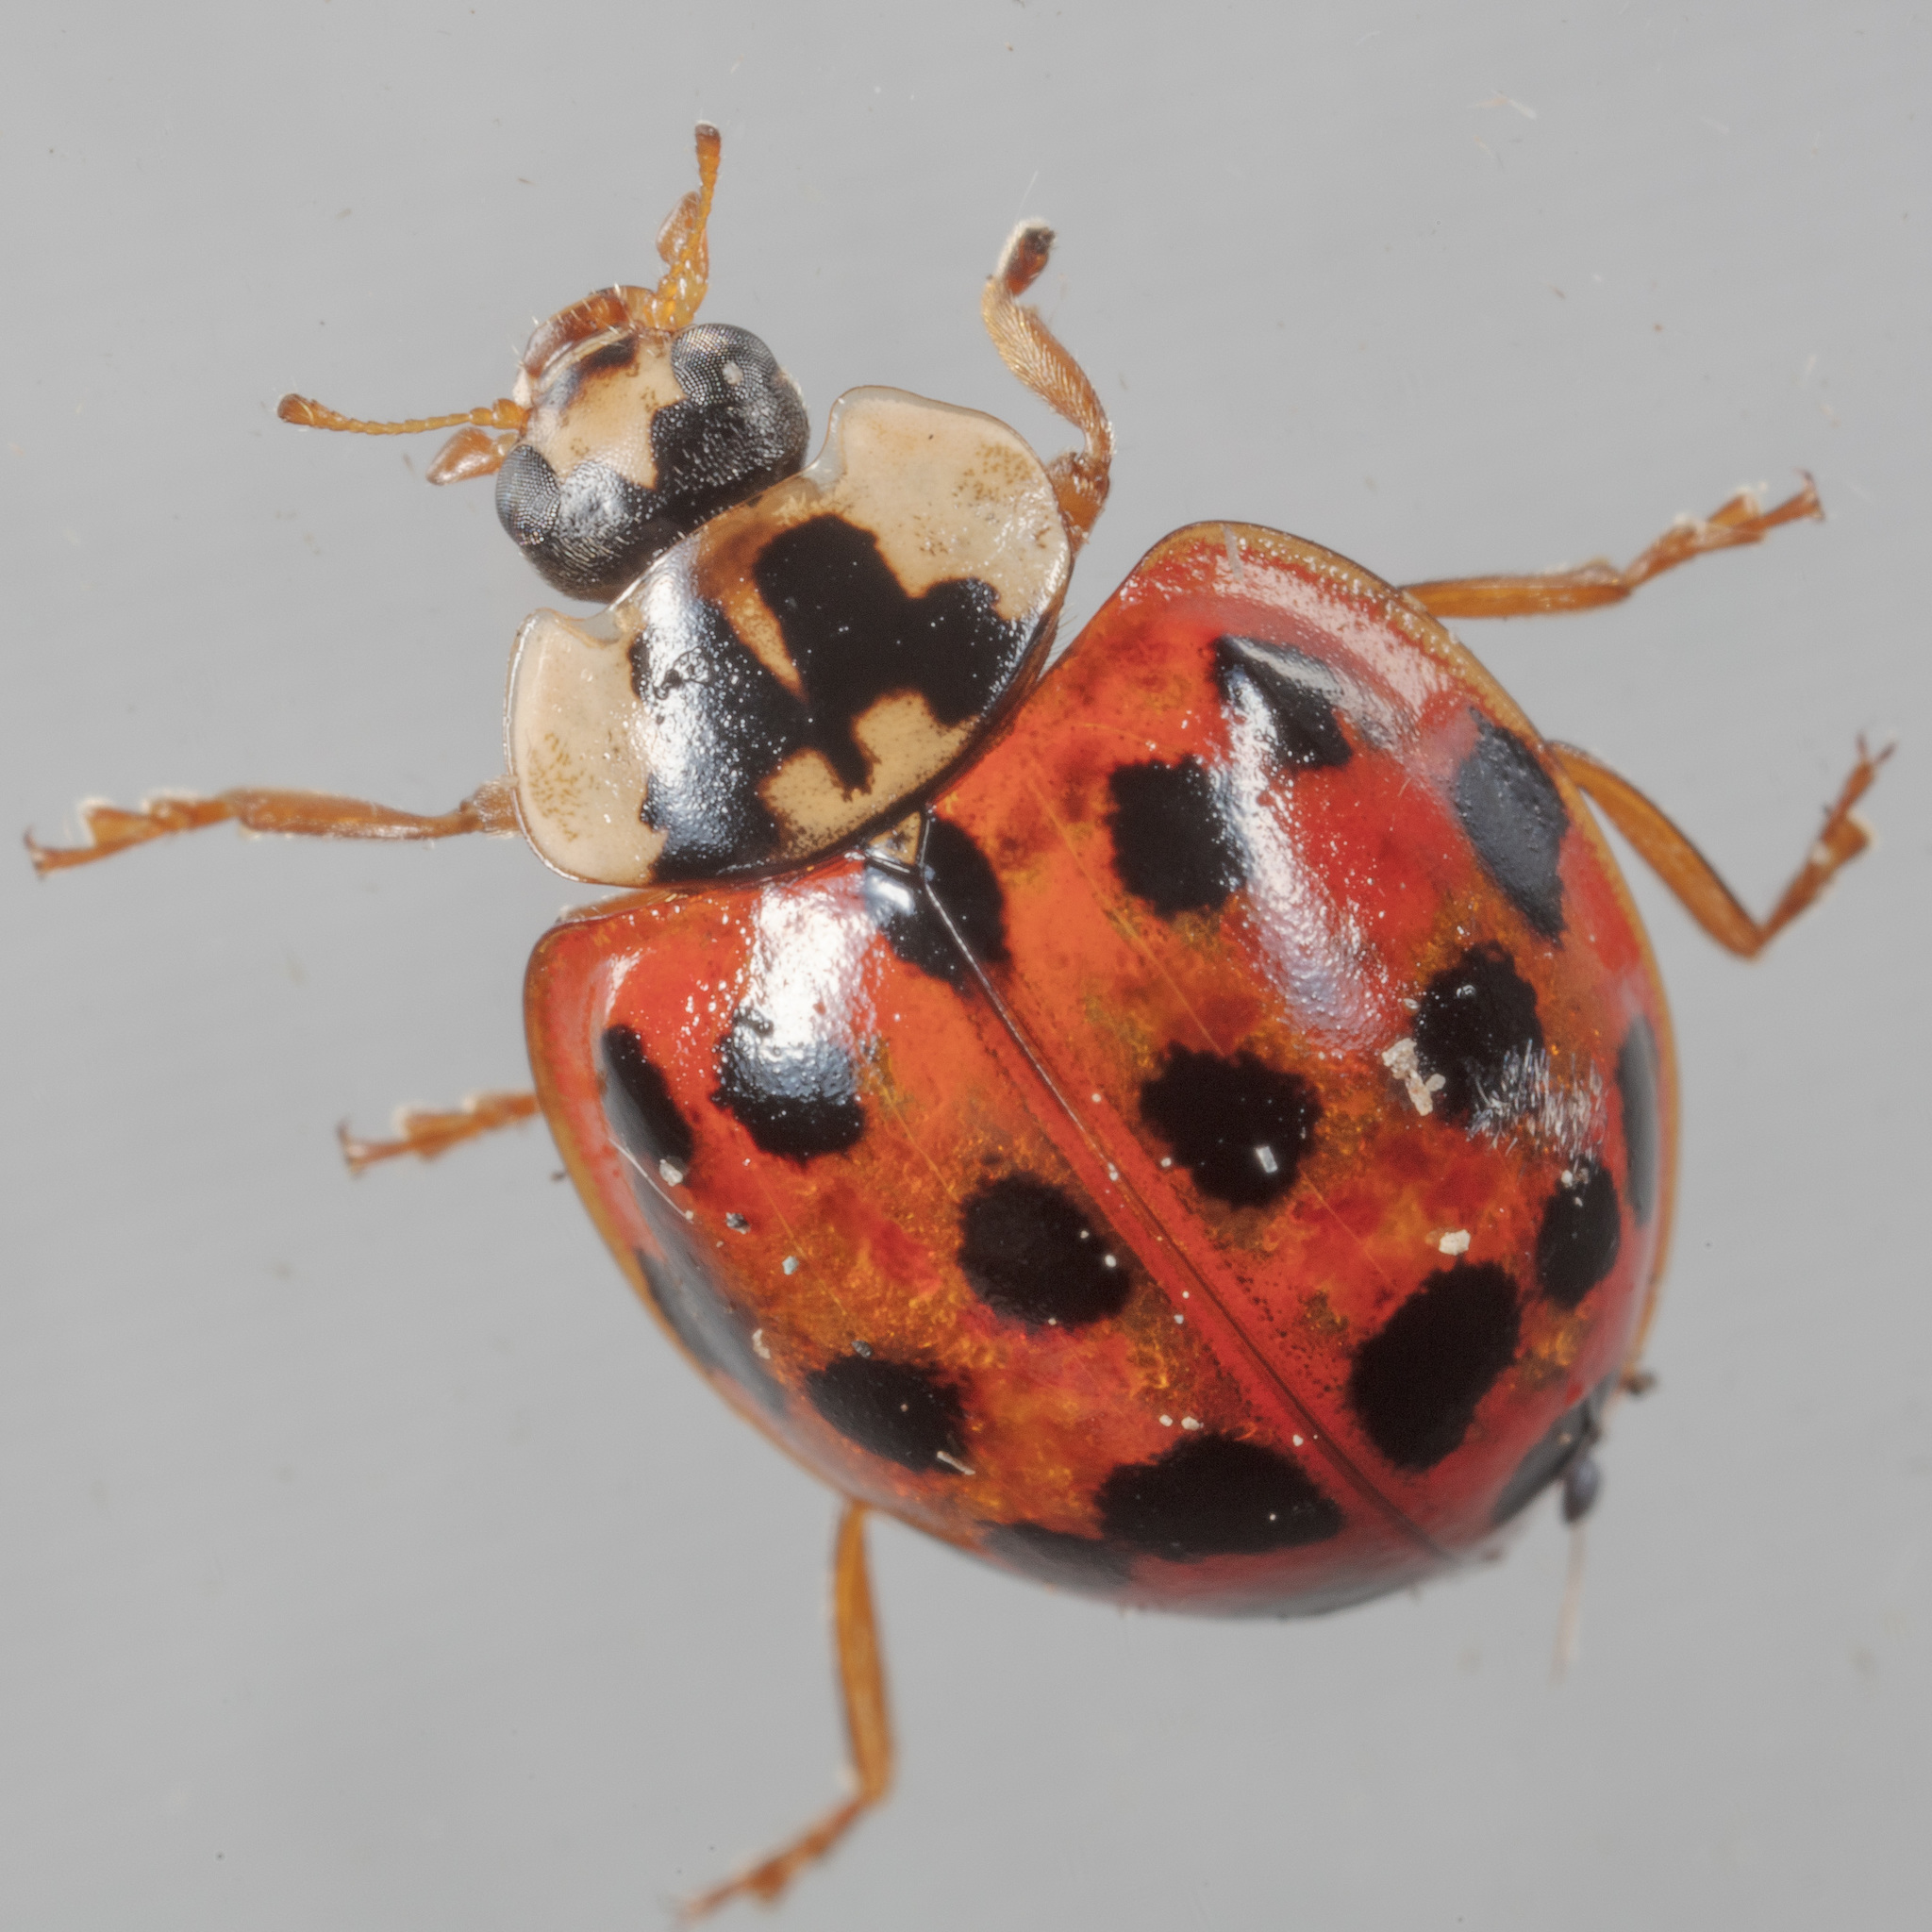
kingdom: Animalia
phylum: Arthropoda
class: Insecta
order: Coleoptera
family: Coccinellidae
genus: Harmonia
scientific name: Harmonia axyridis
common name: Harlequin ladybird
